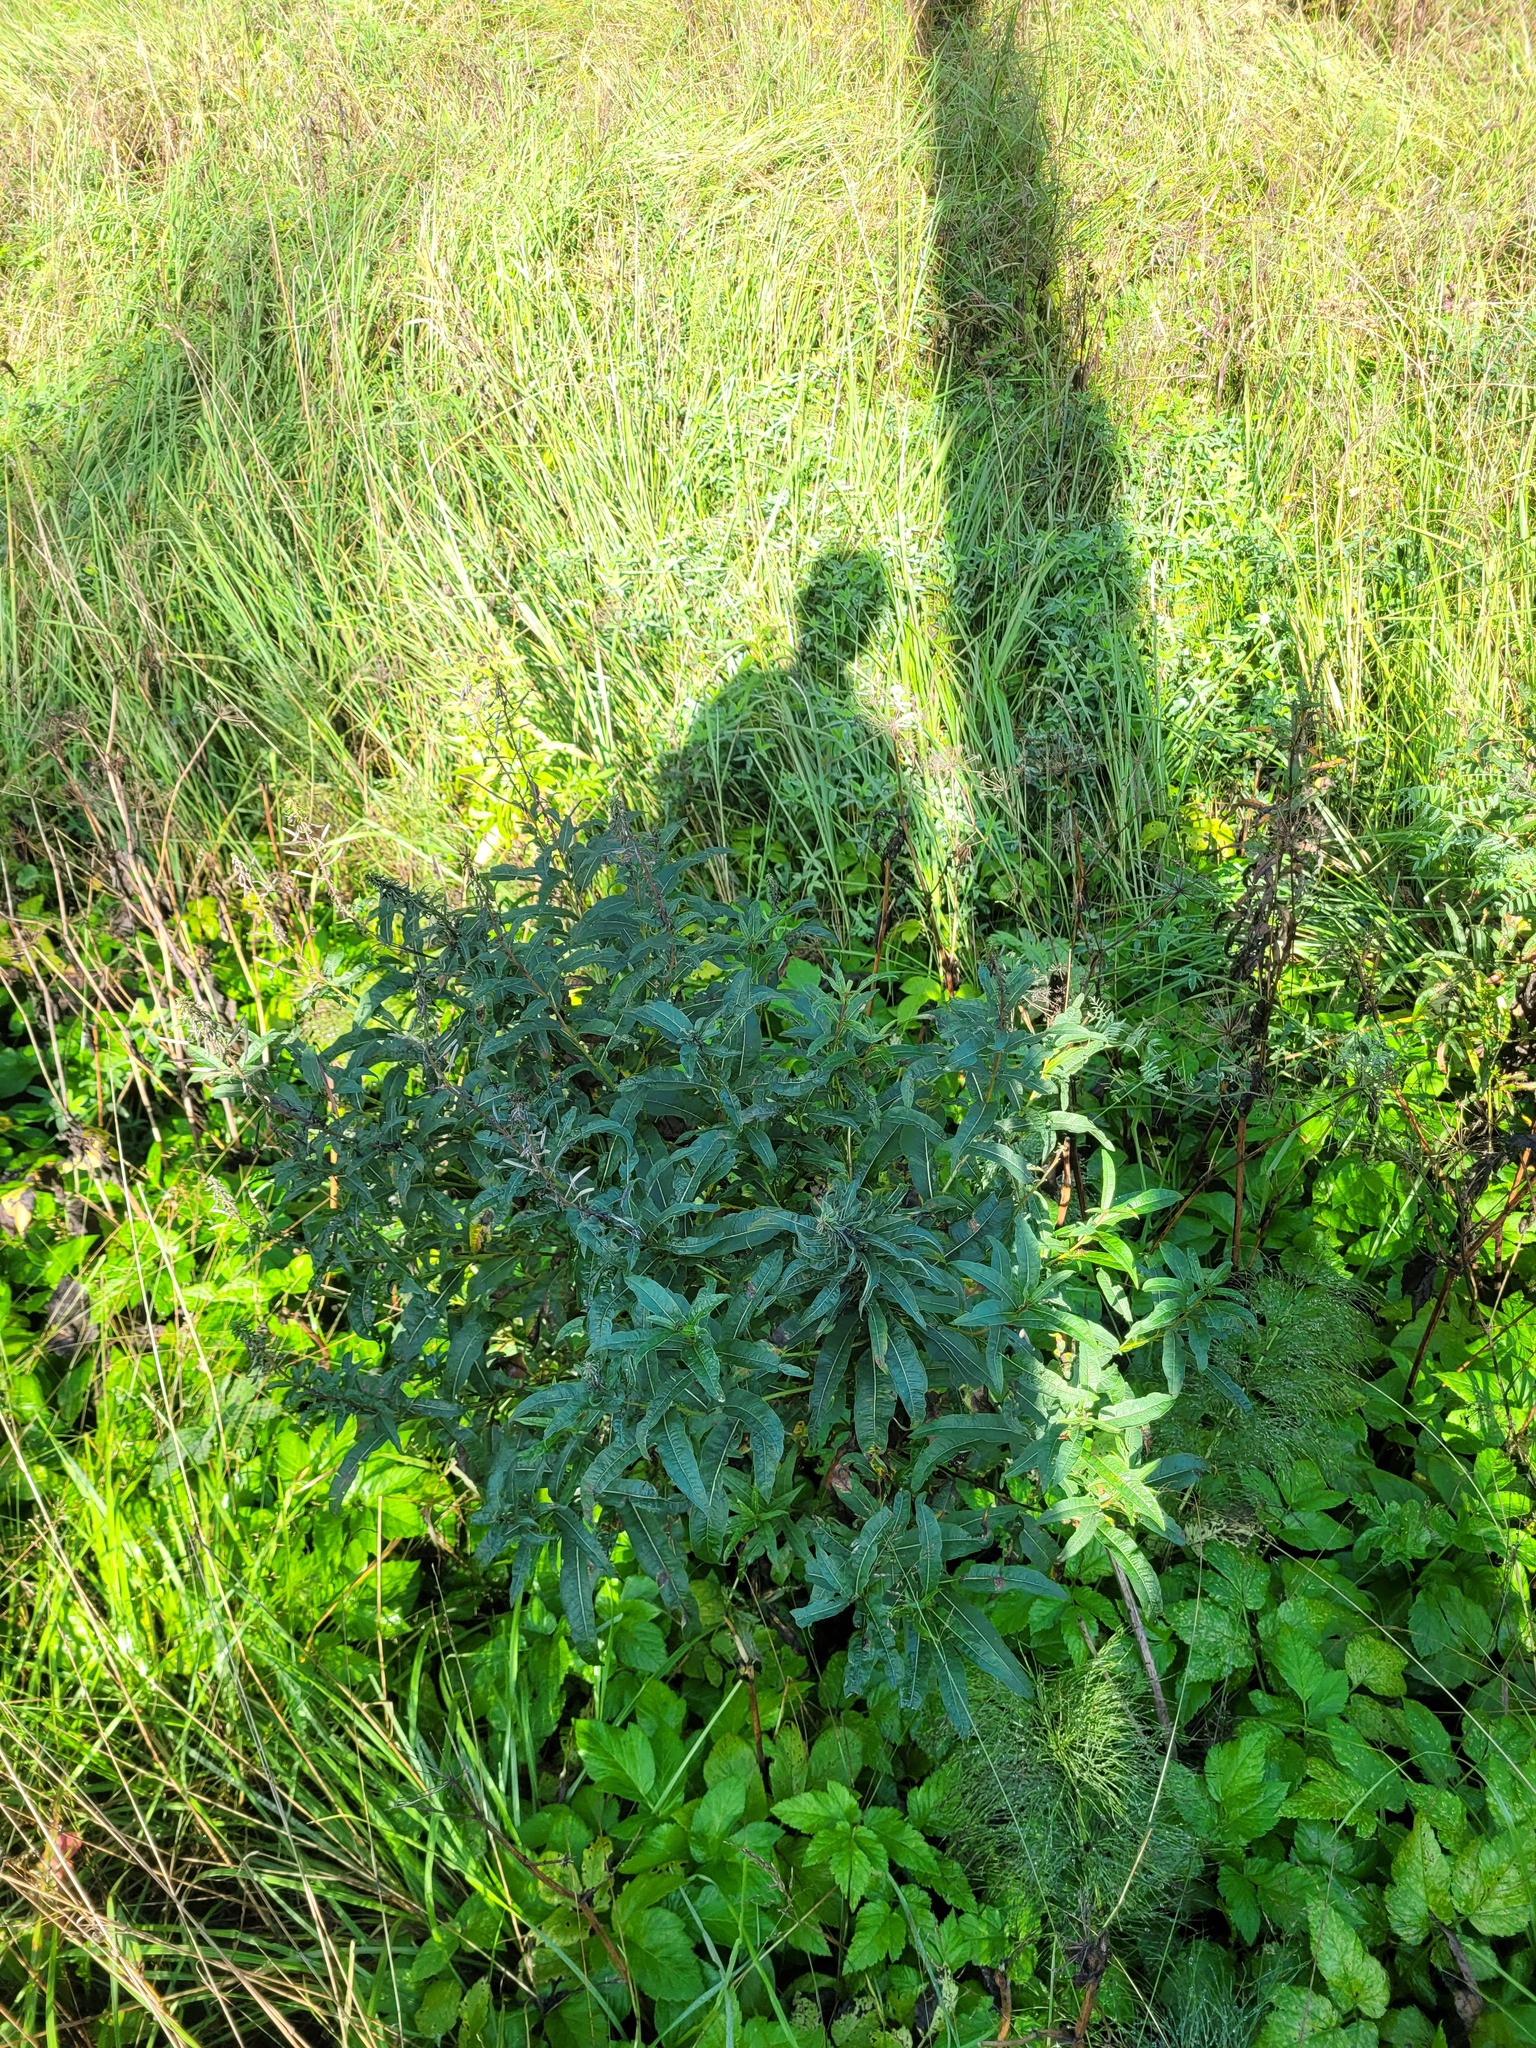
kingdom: Plantae
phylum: Tracheophyta
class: Magnoliopsida
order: Myrtales
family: Onagraceae
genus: Chamaenerion
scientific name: Chamaenerion angustifolium
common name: Fireweed
